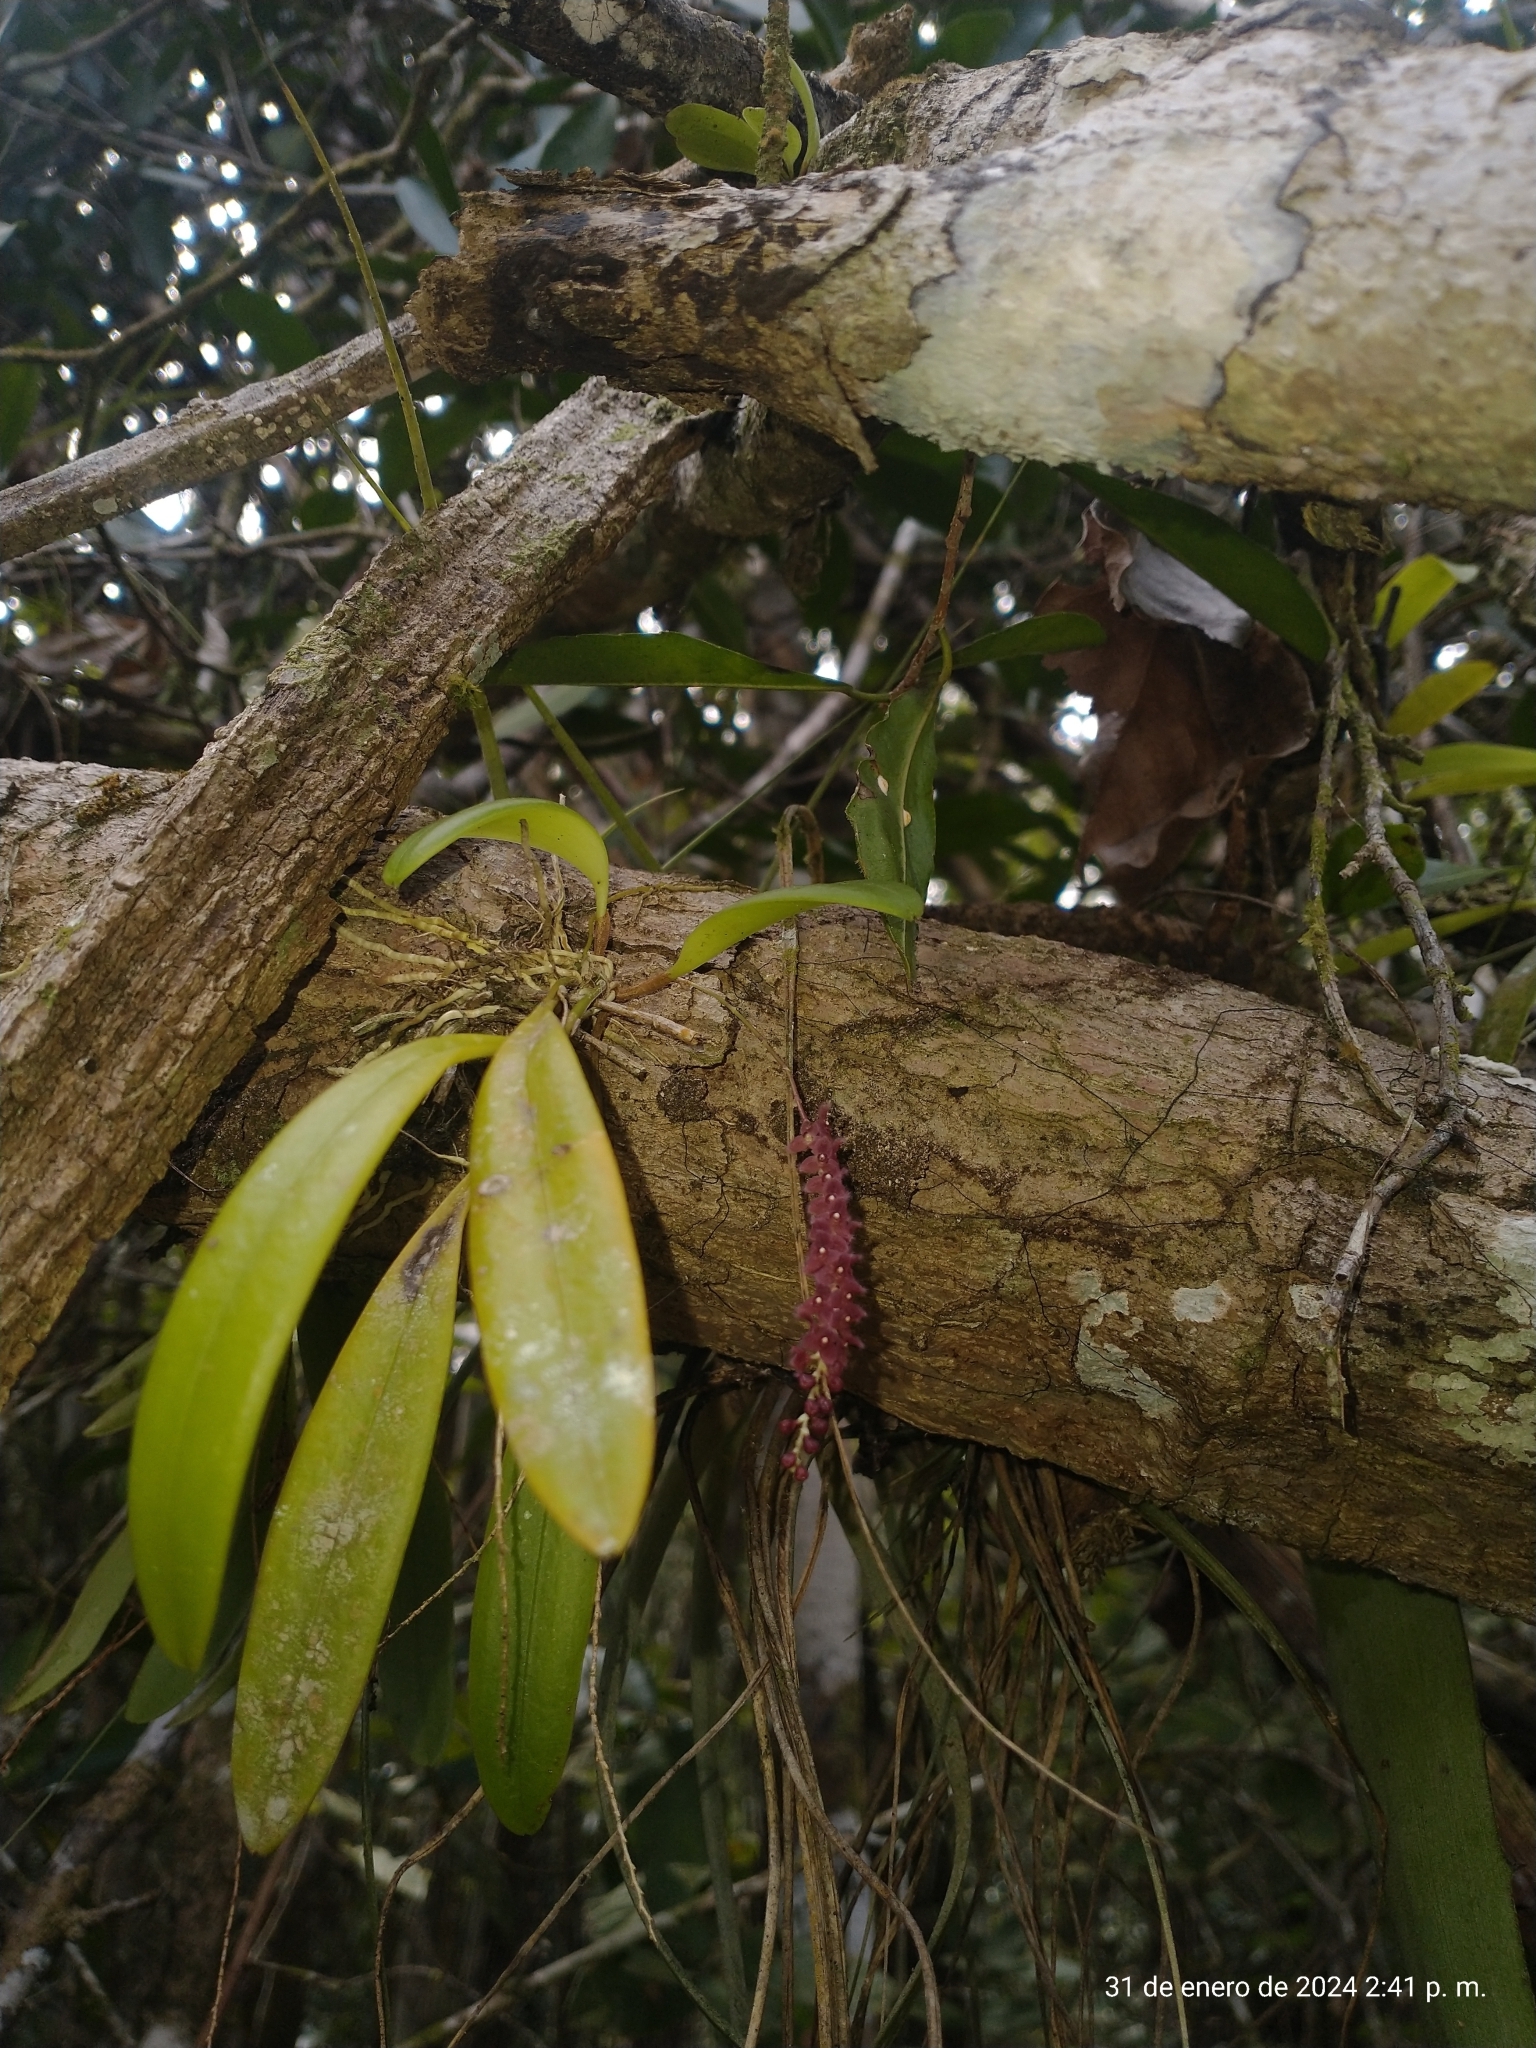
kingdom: Plantae
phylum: Tracheophyta
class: Liliopsida
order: Asparagales
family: Orchidaceae
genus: Stelis
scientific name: Stelis ciliaris
